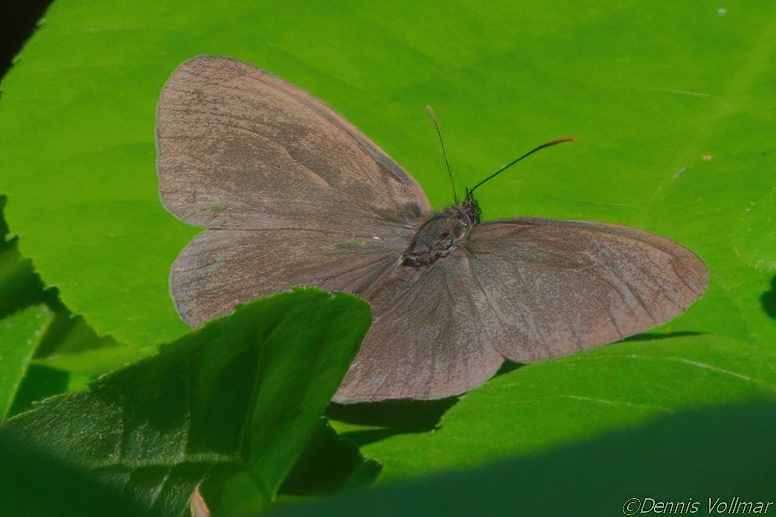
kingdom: Animalia
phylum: Arthropoda
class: Insecta
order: Lepidoptera
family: Nymphalidae
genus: Hermeuptychia
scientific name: Hermeuptychia hermes
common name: Hermes satyr
